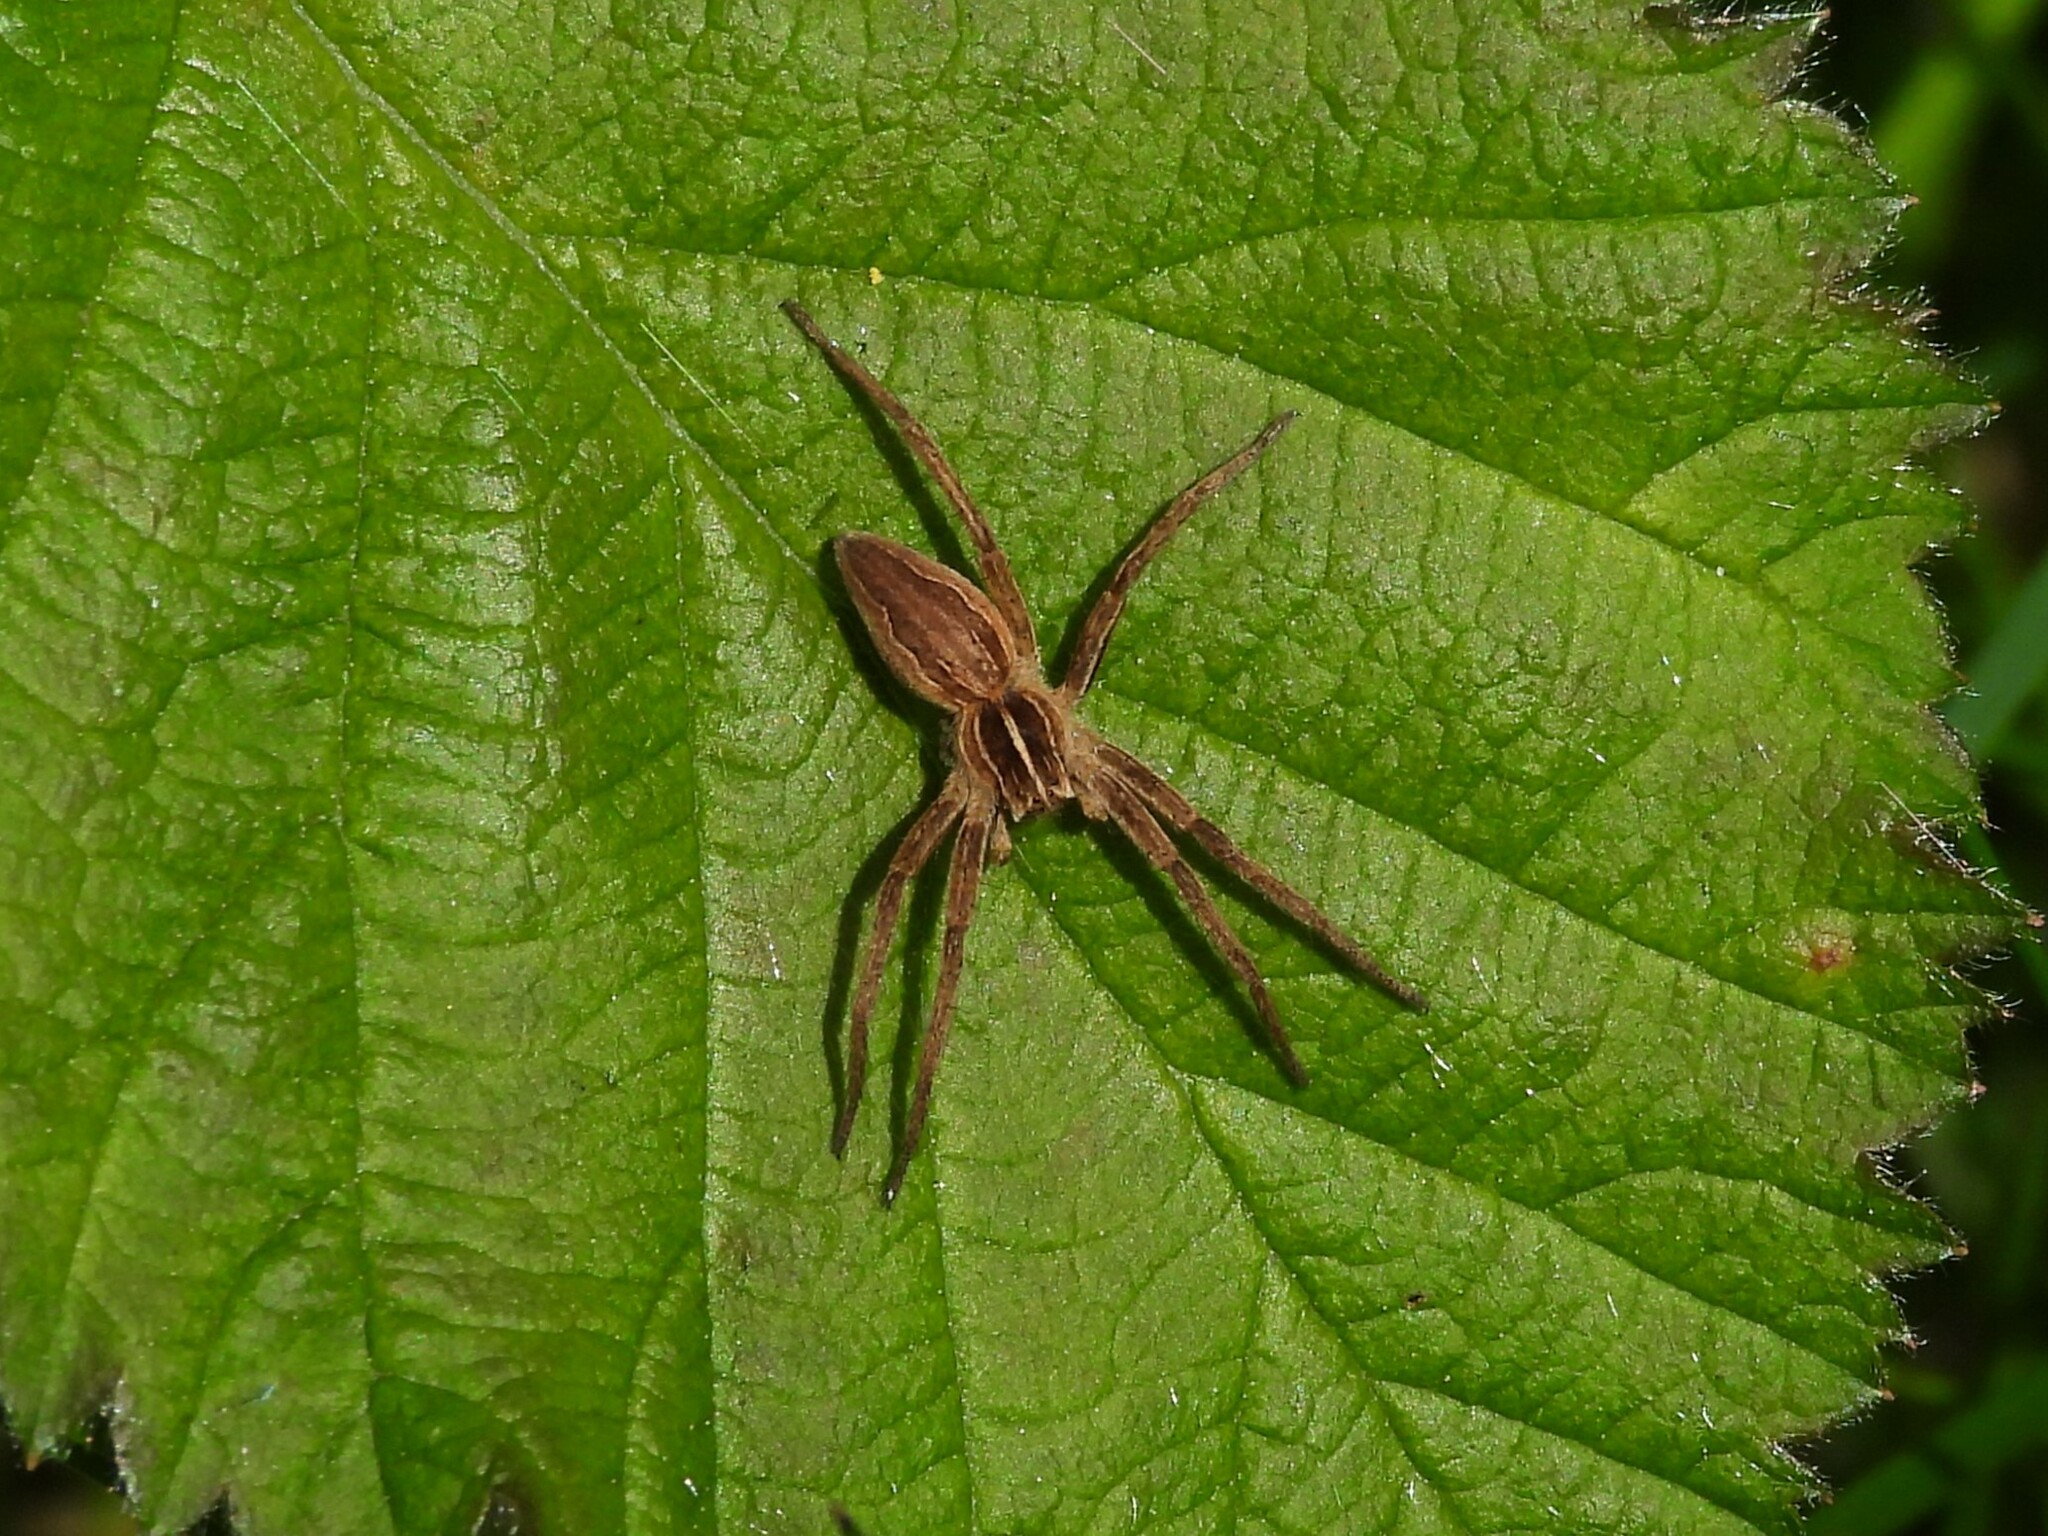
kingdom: Animalia
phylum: Arthropoda
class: Arachnida
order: Araneae
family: Pisauridae
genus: Pisaura
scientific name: Pisaura mirabilis
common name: Tent spider
